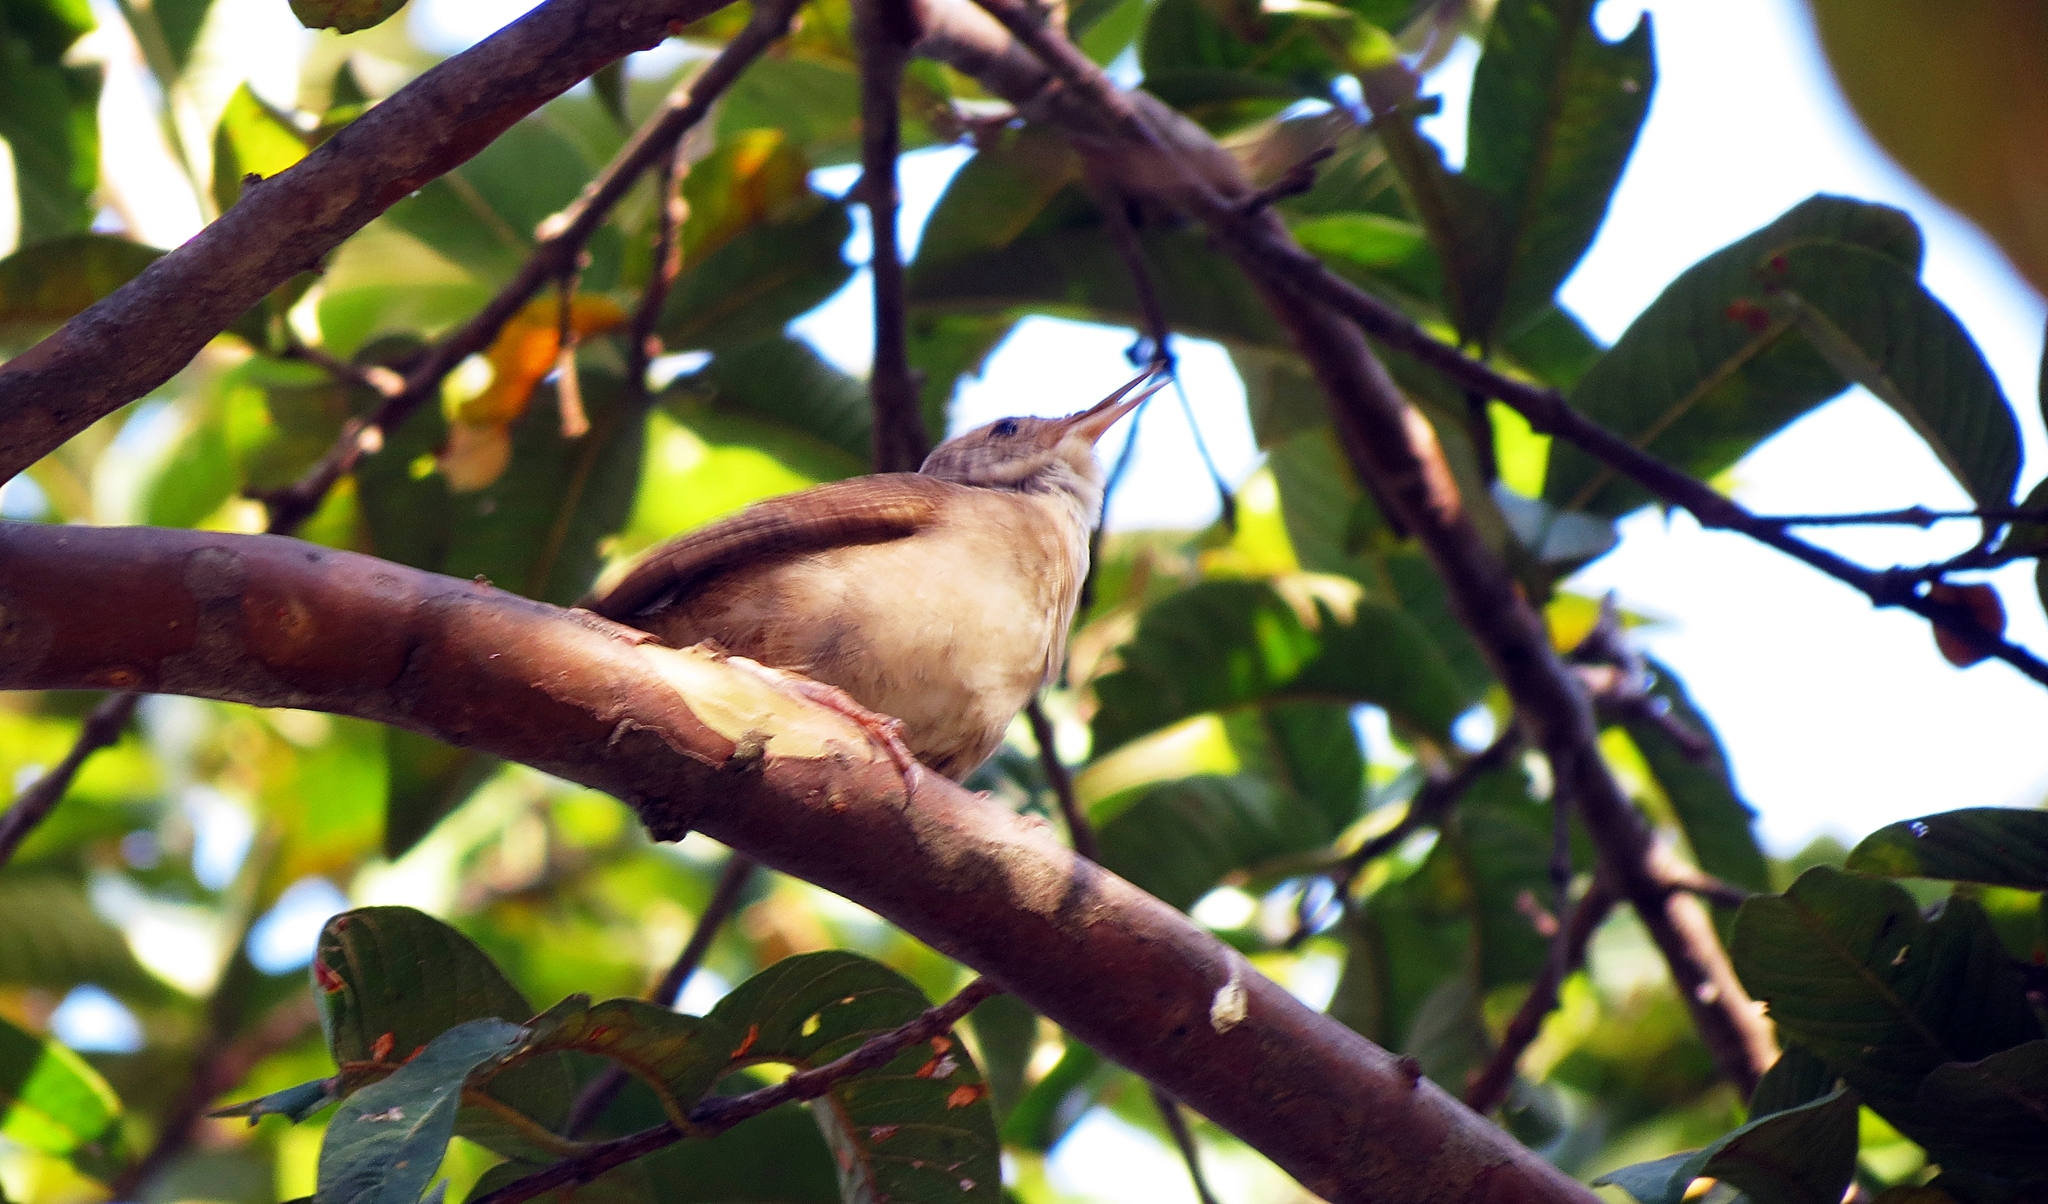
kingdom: Animalia
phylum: Chordata
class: Aves
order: Passeriformes
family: Troglodytidae
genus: Troglodytes
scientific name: Troglodytes aedon
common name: House wren
